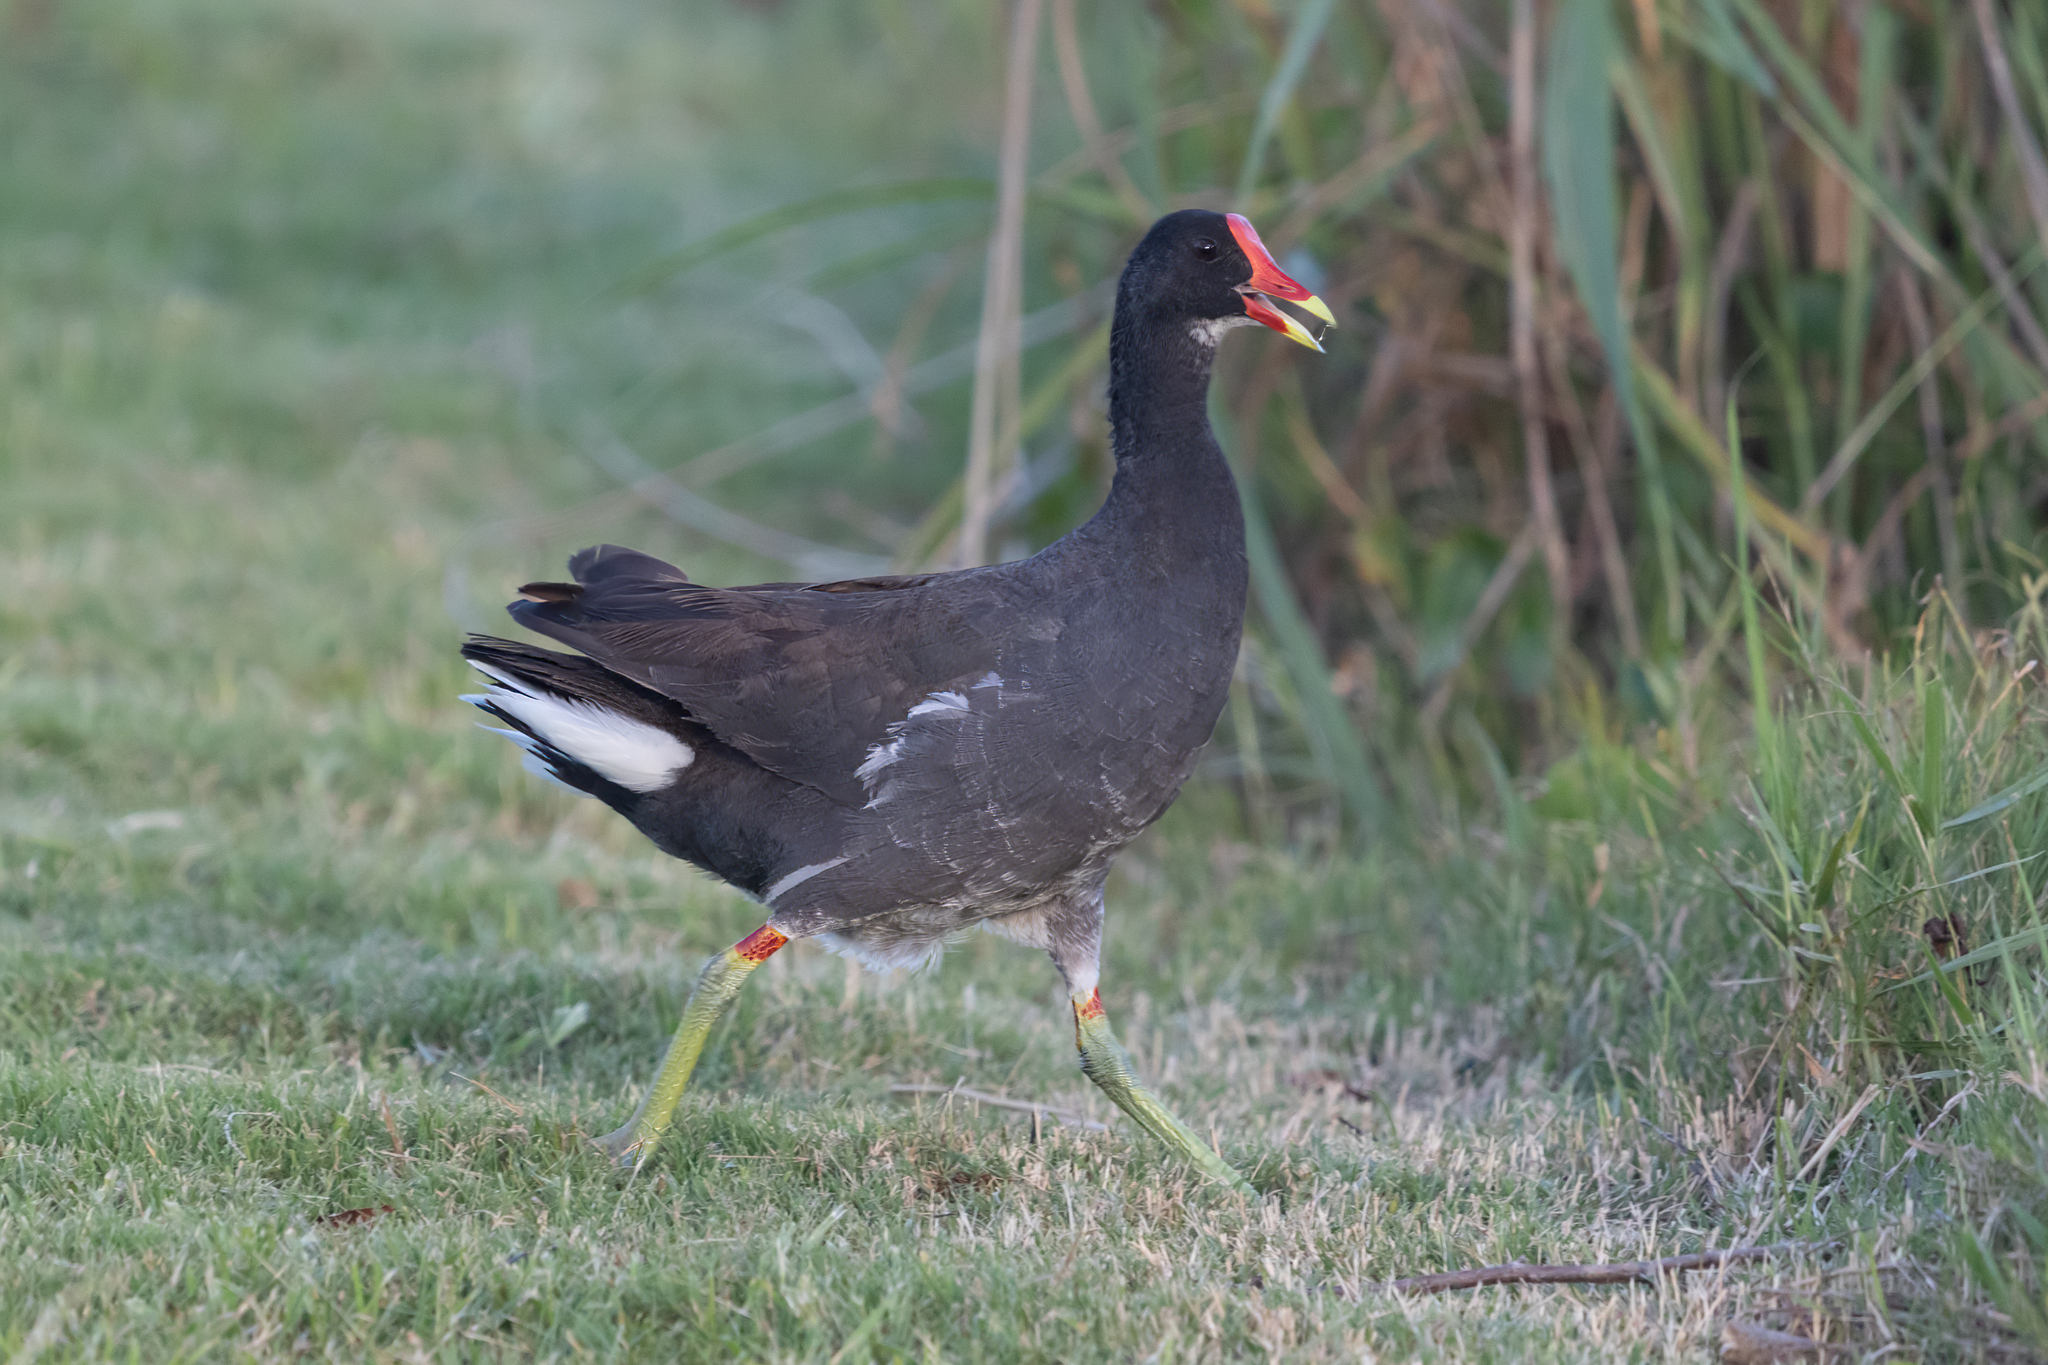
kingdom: Animalia
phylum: Chordata
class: Aves
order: Gruiformes
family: Rallidae
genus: Gallinula
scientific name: Gallinula chloropus
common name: Common moorhen
